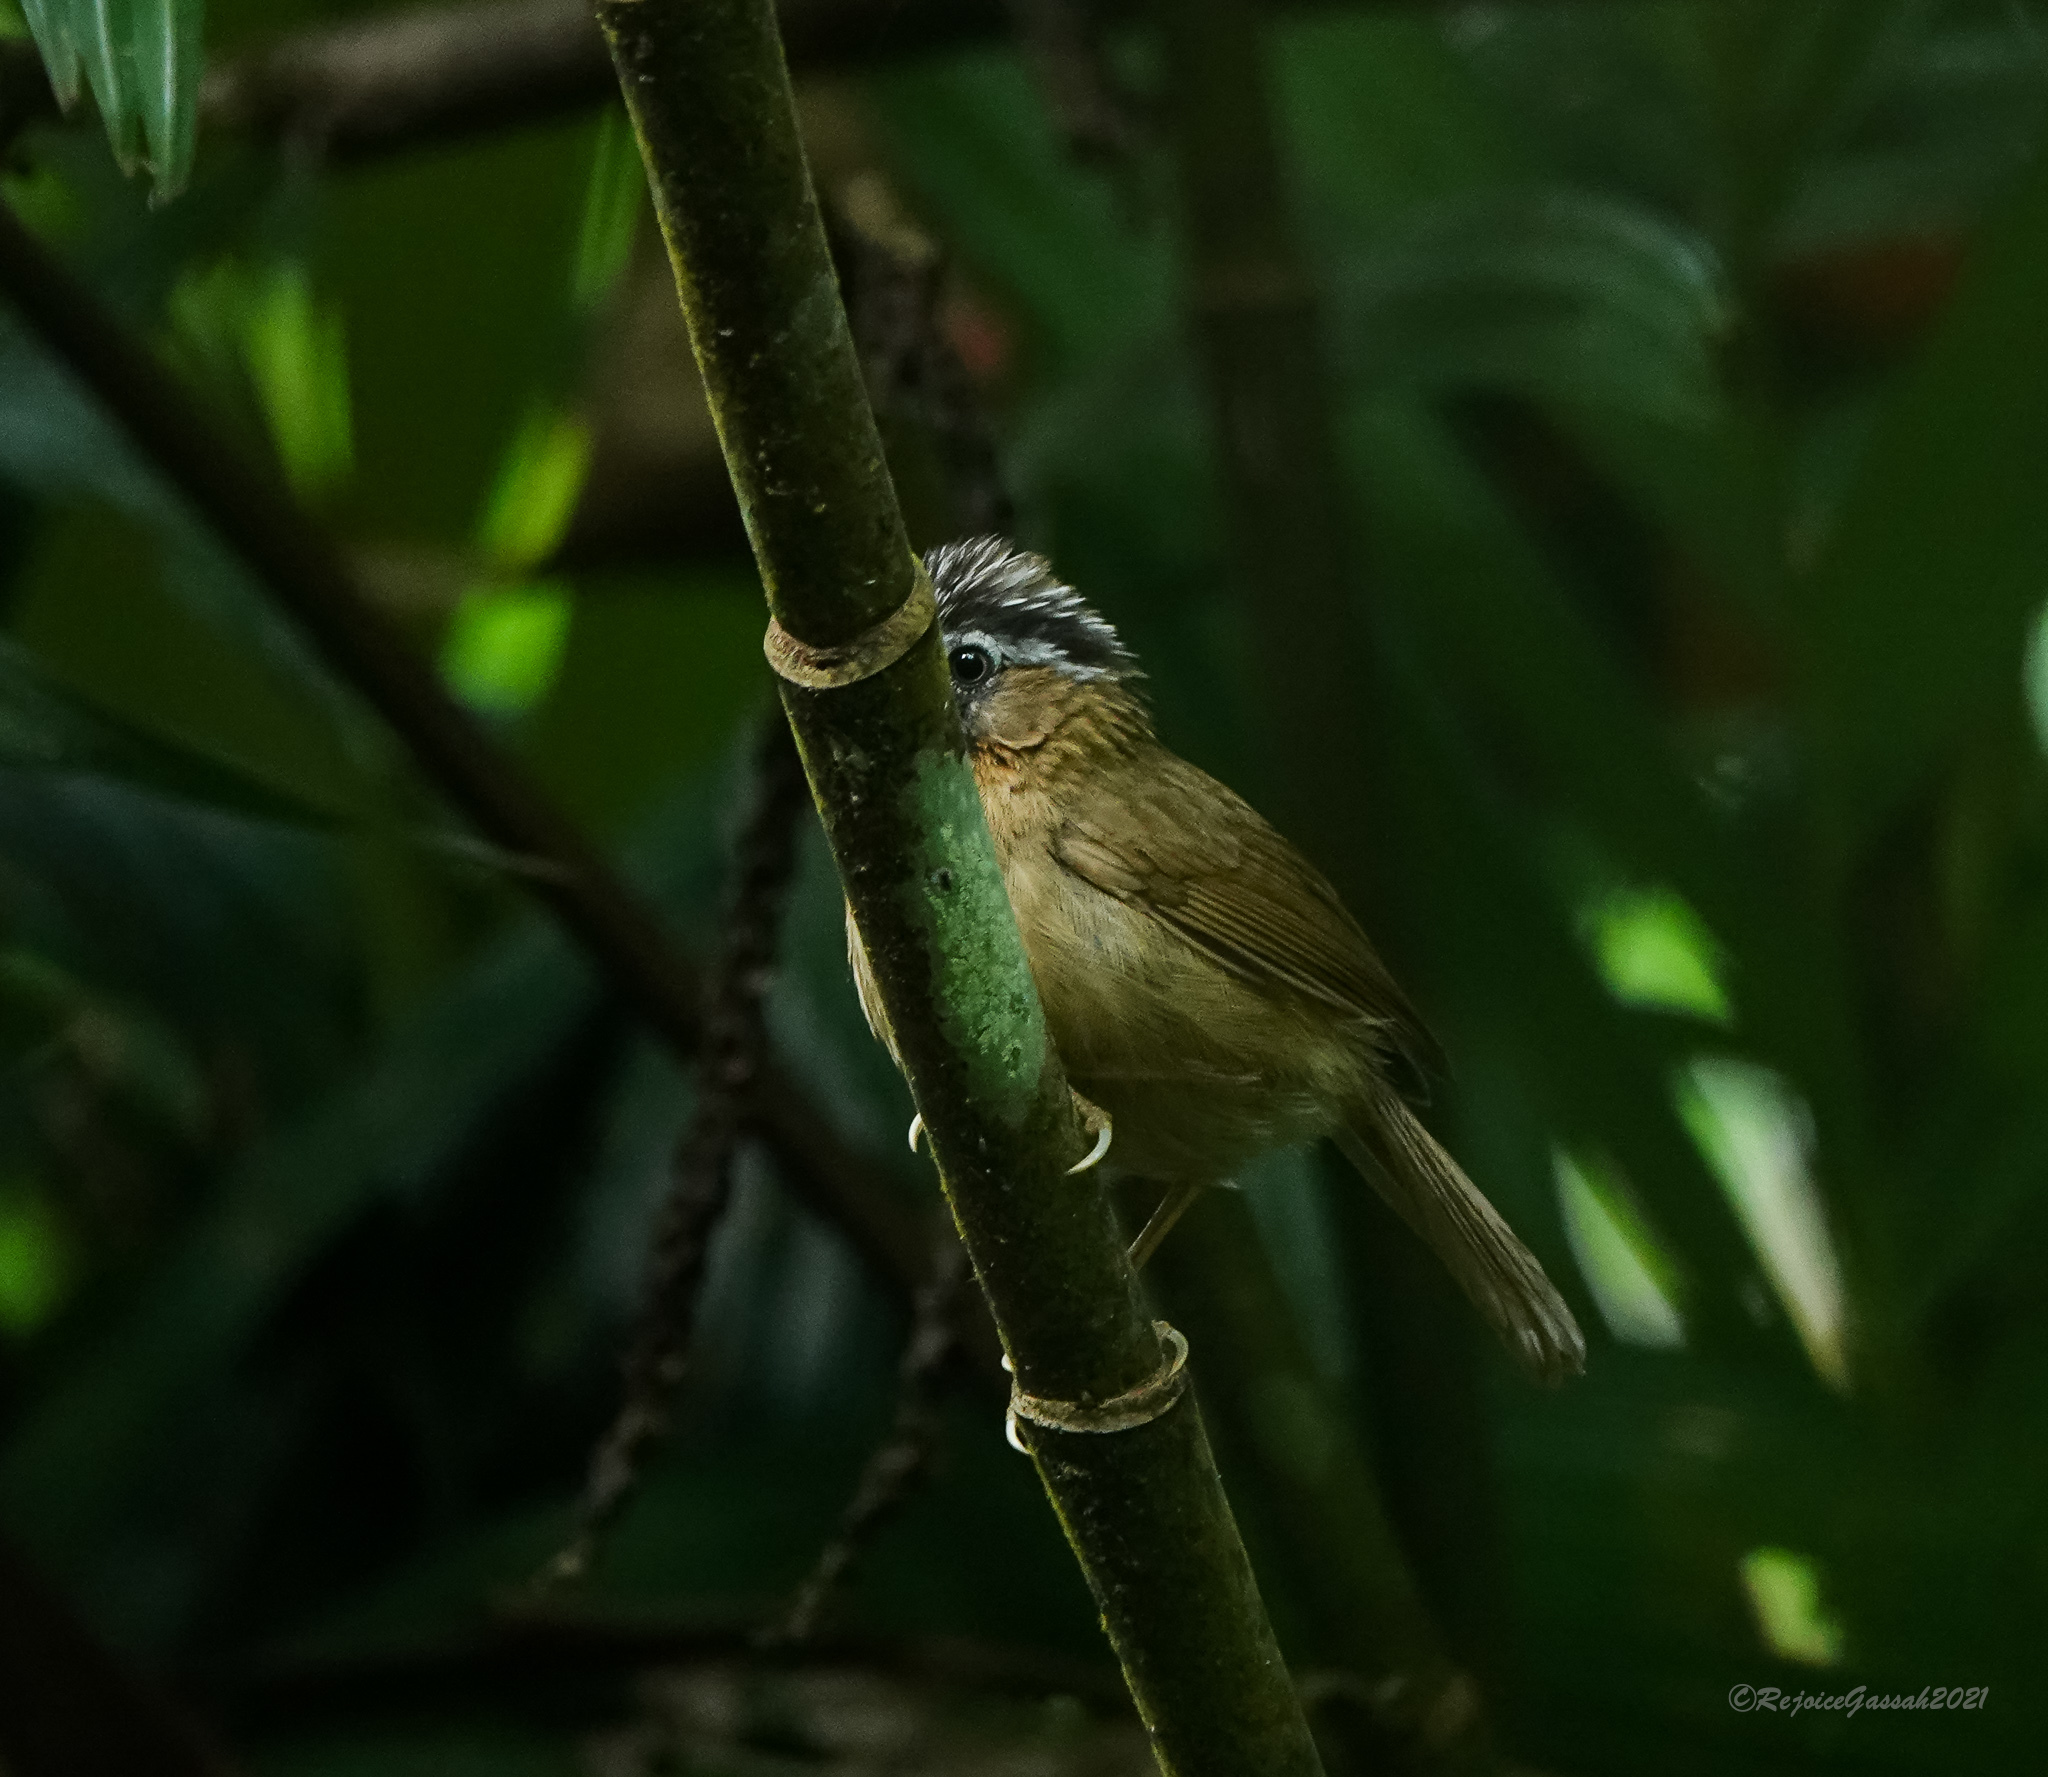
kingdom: Animalia
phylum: Chordata
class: Aves
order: Passeriformes
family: Timaliidae
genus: Stachyris
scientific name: Stachyris nigriceps
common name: Grey-throated babbler
